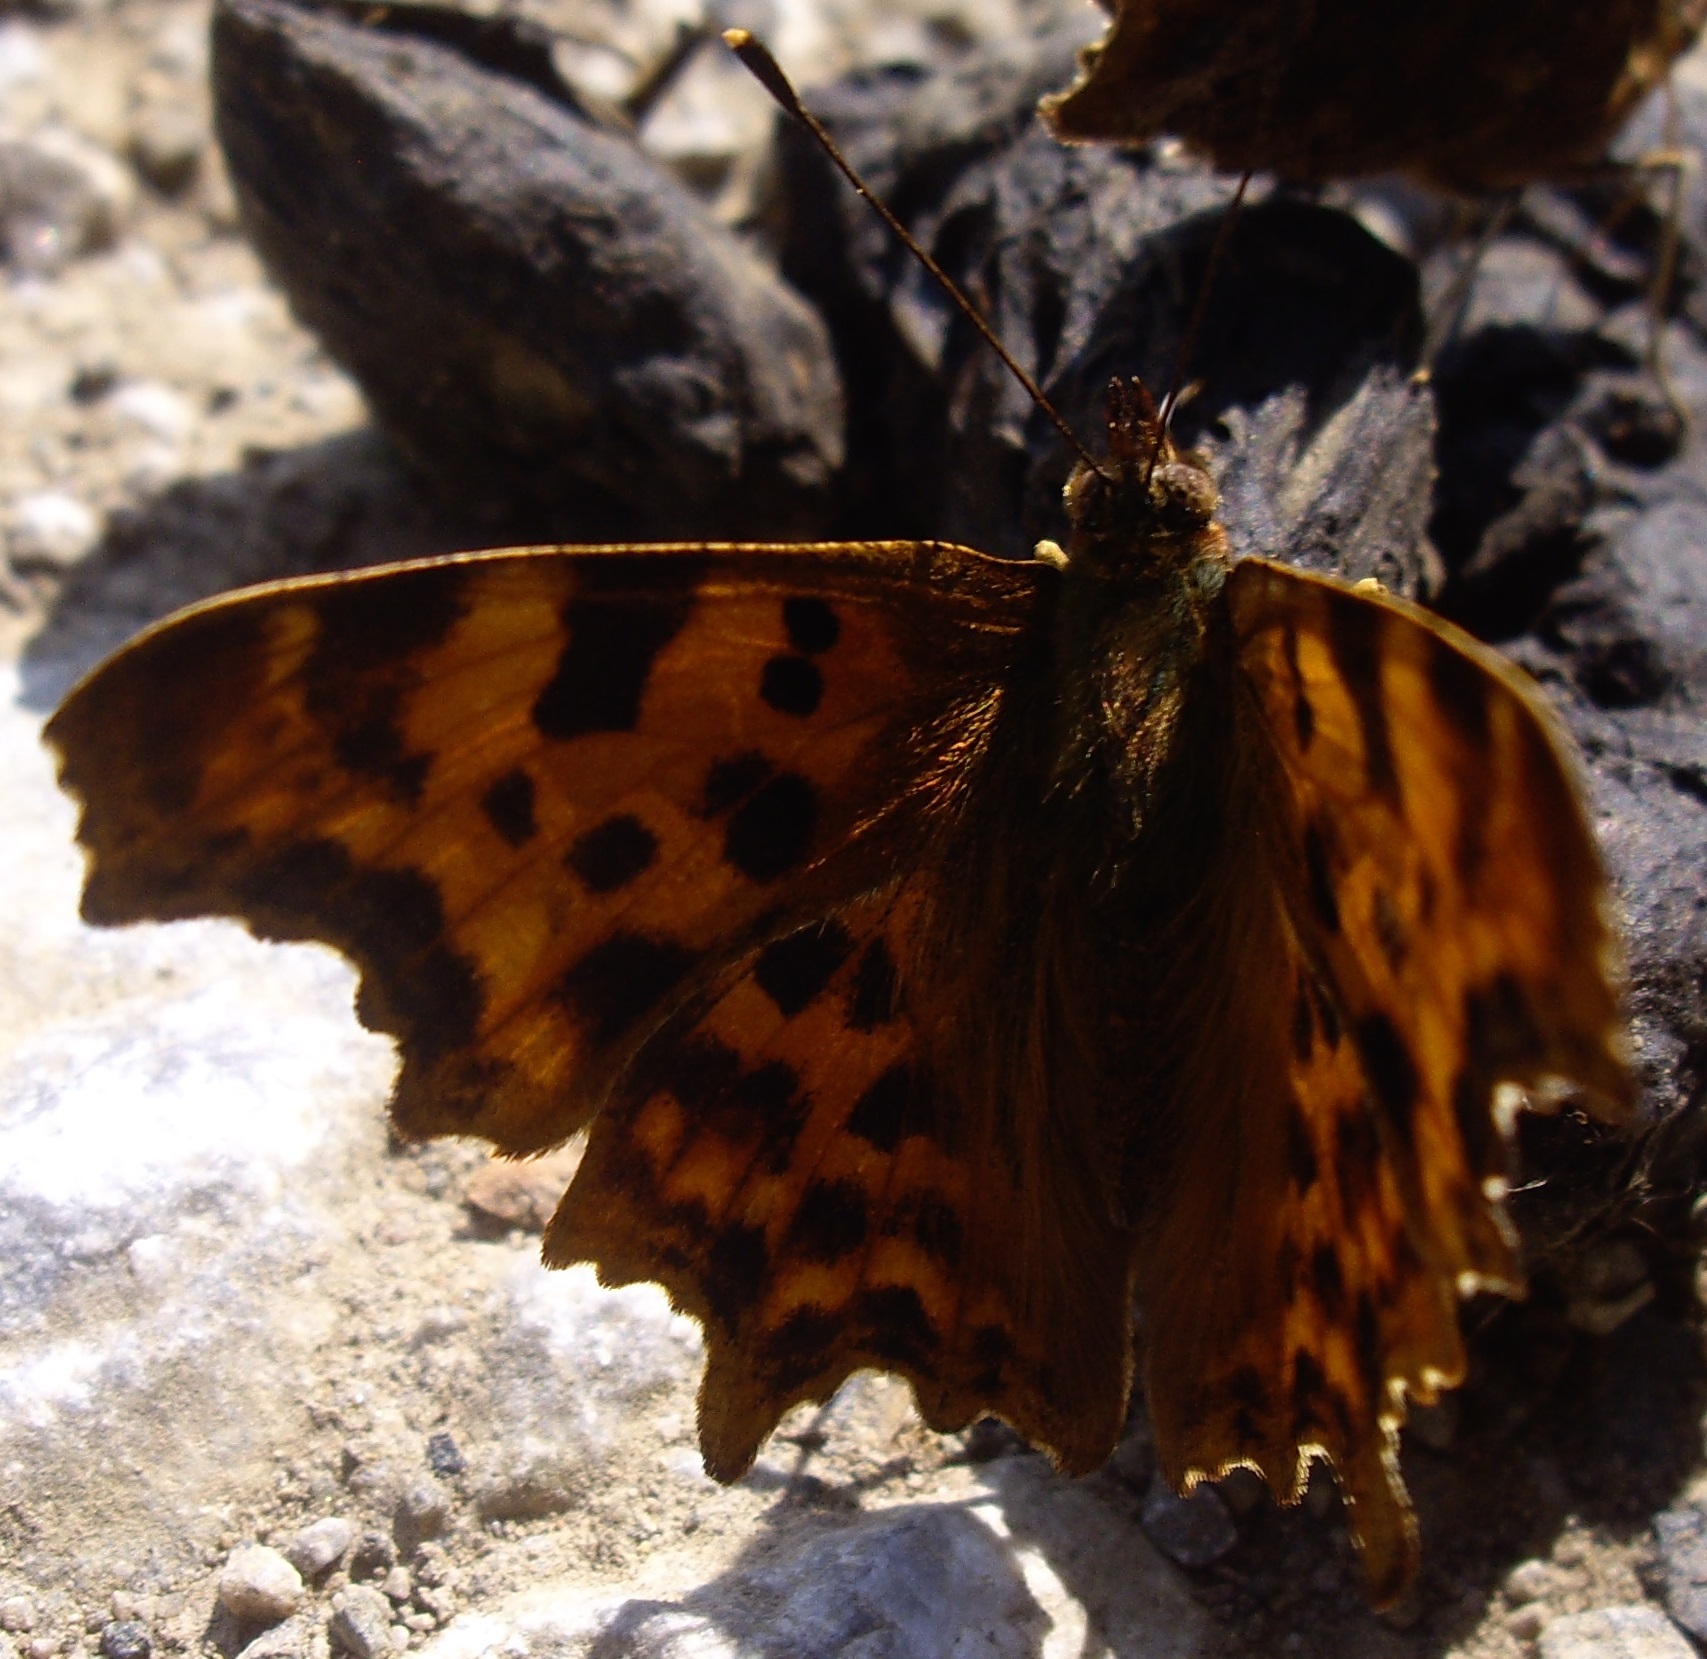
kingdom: Animalia
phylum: Arthropoda
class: Insecta
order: Lepidoptera
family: Nymphalidae
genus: Polygonia
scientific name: Polygonia c-album
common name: Comma
